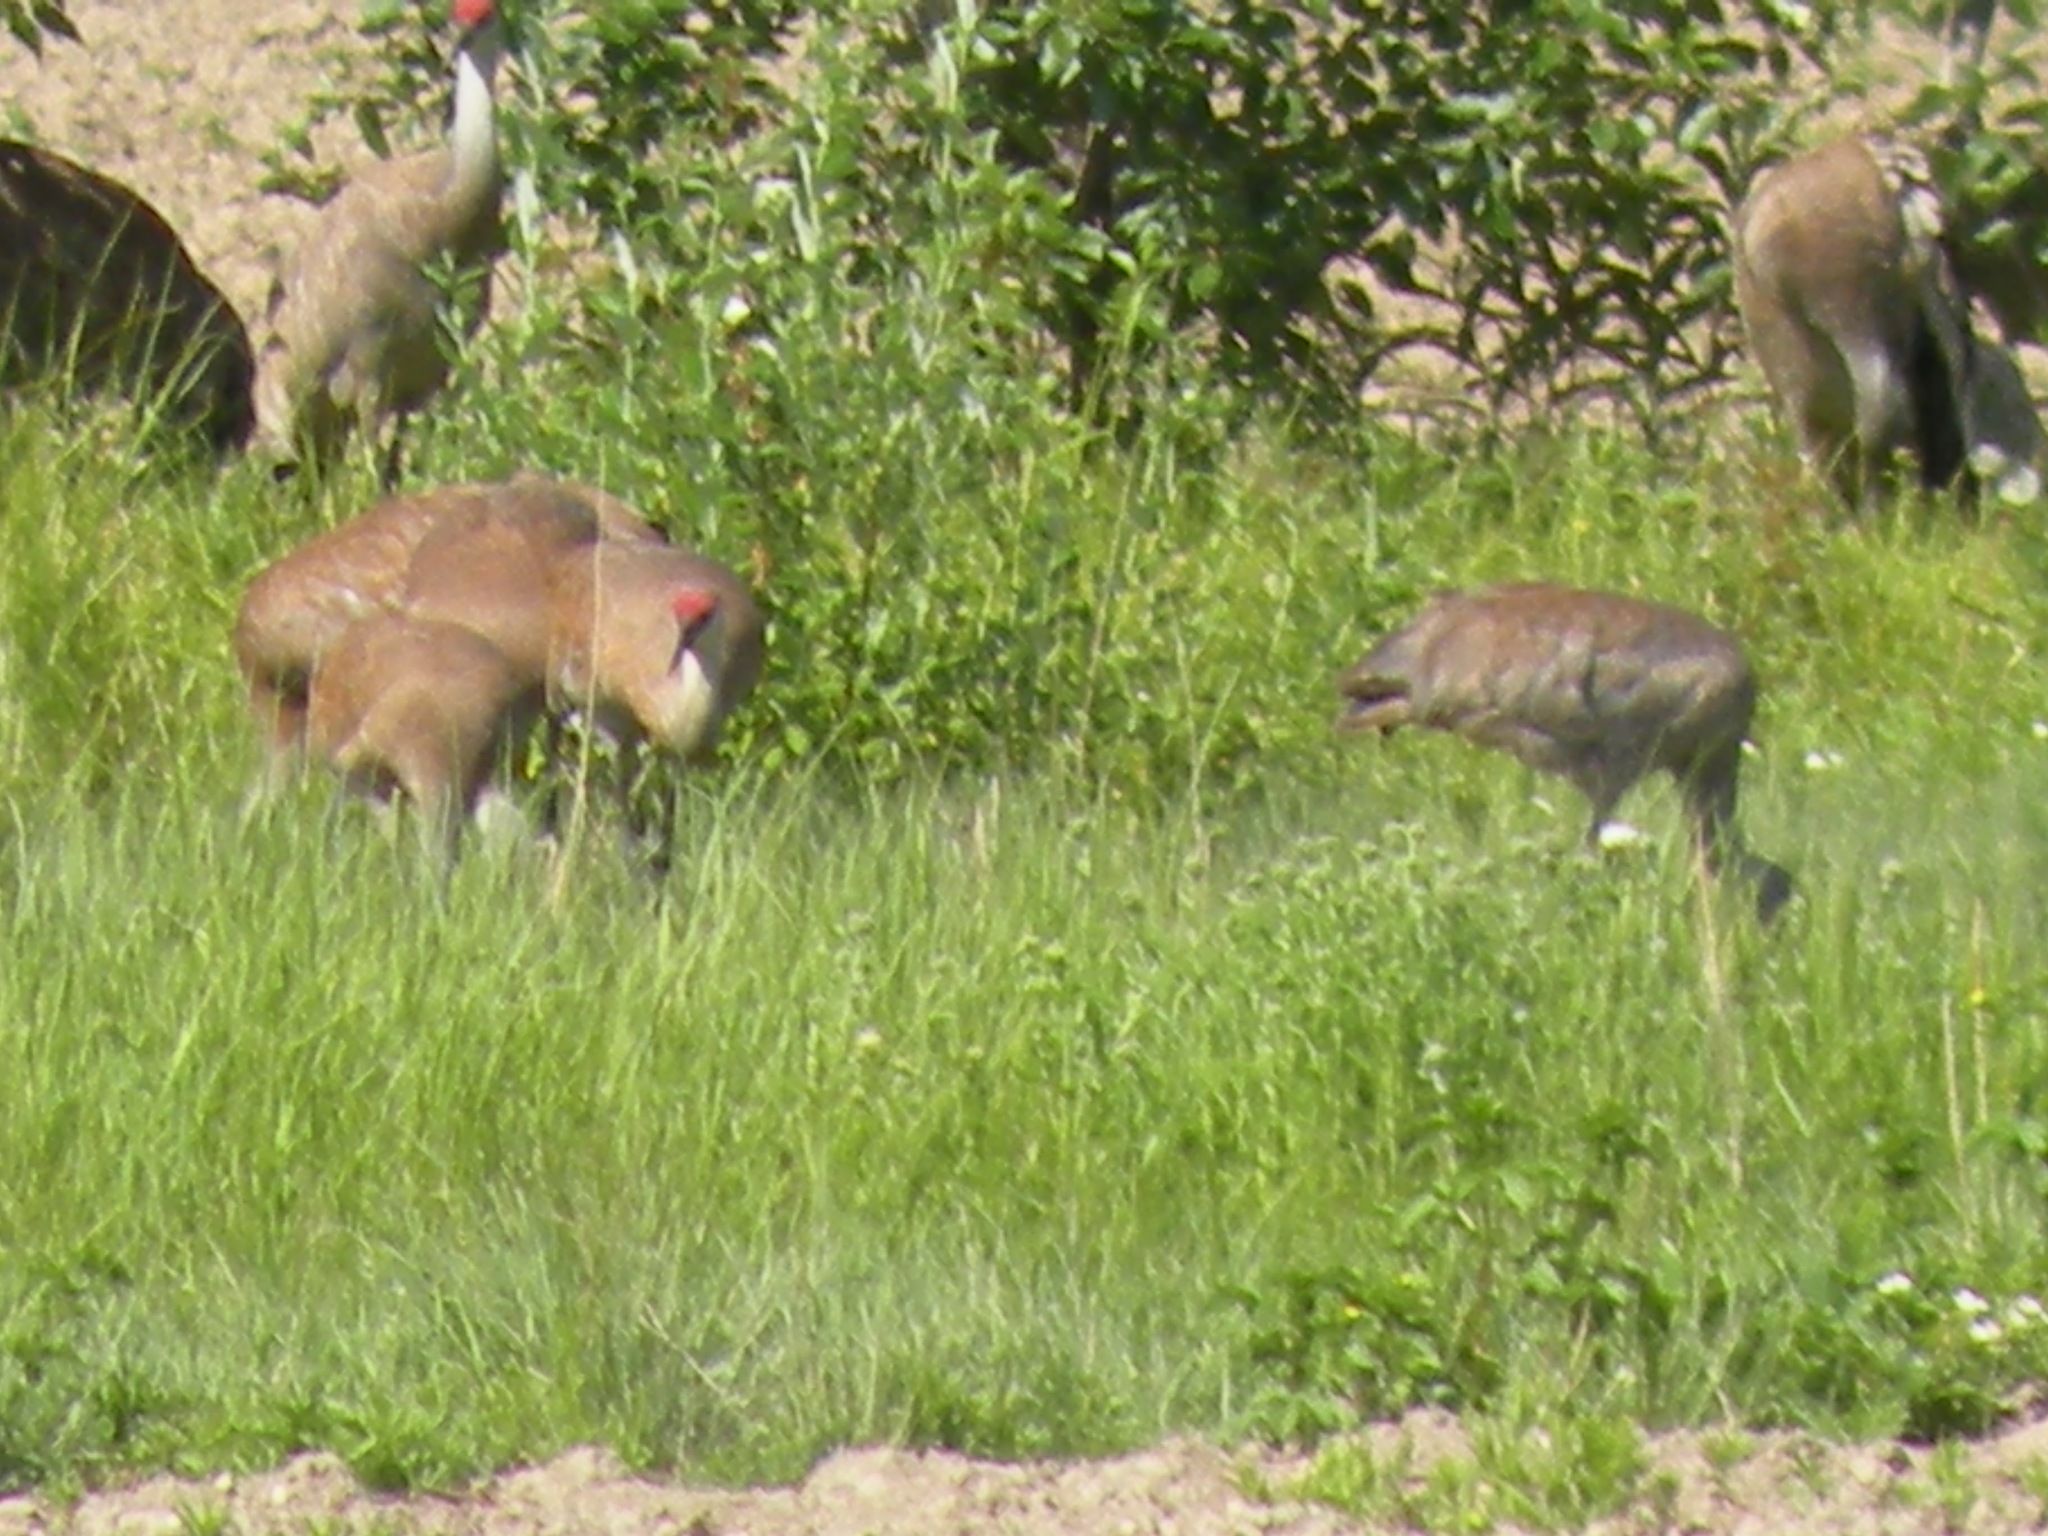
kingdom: Animalia
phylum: Chordata
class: Aves
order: Gruiformes
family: Gruidae
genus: Grus
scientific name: Grus canadensis
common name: Sandhill crane
